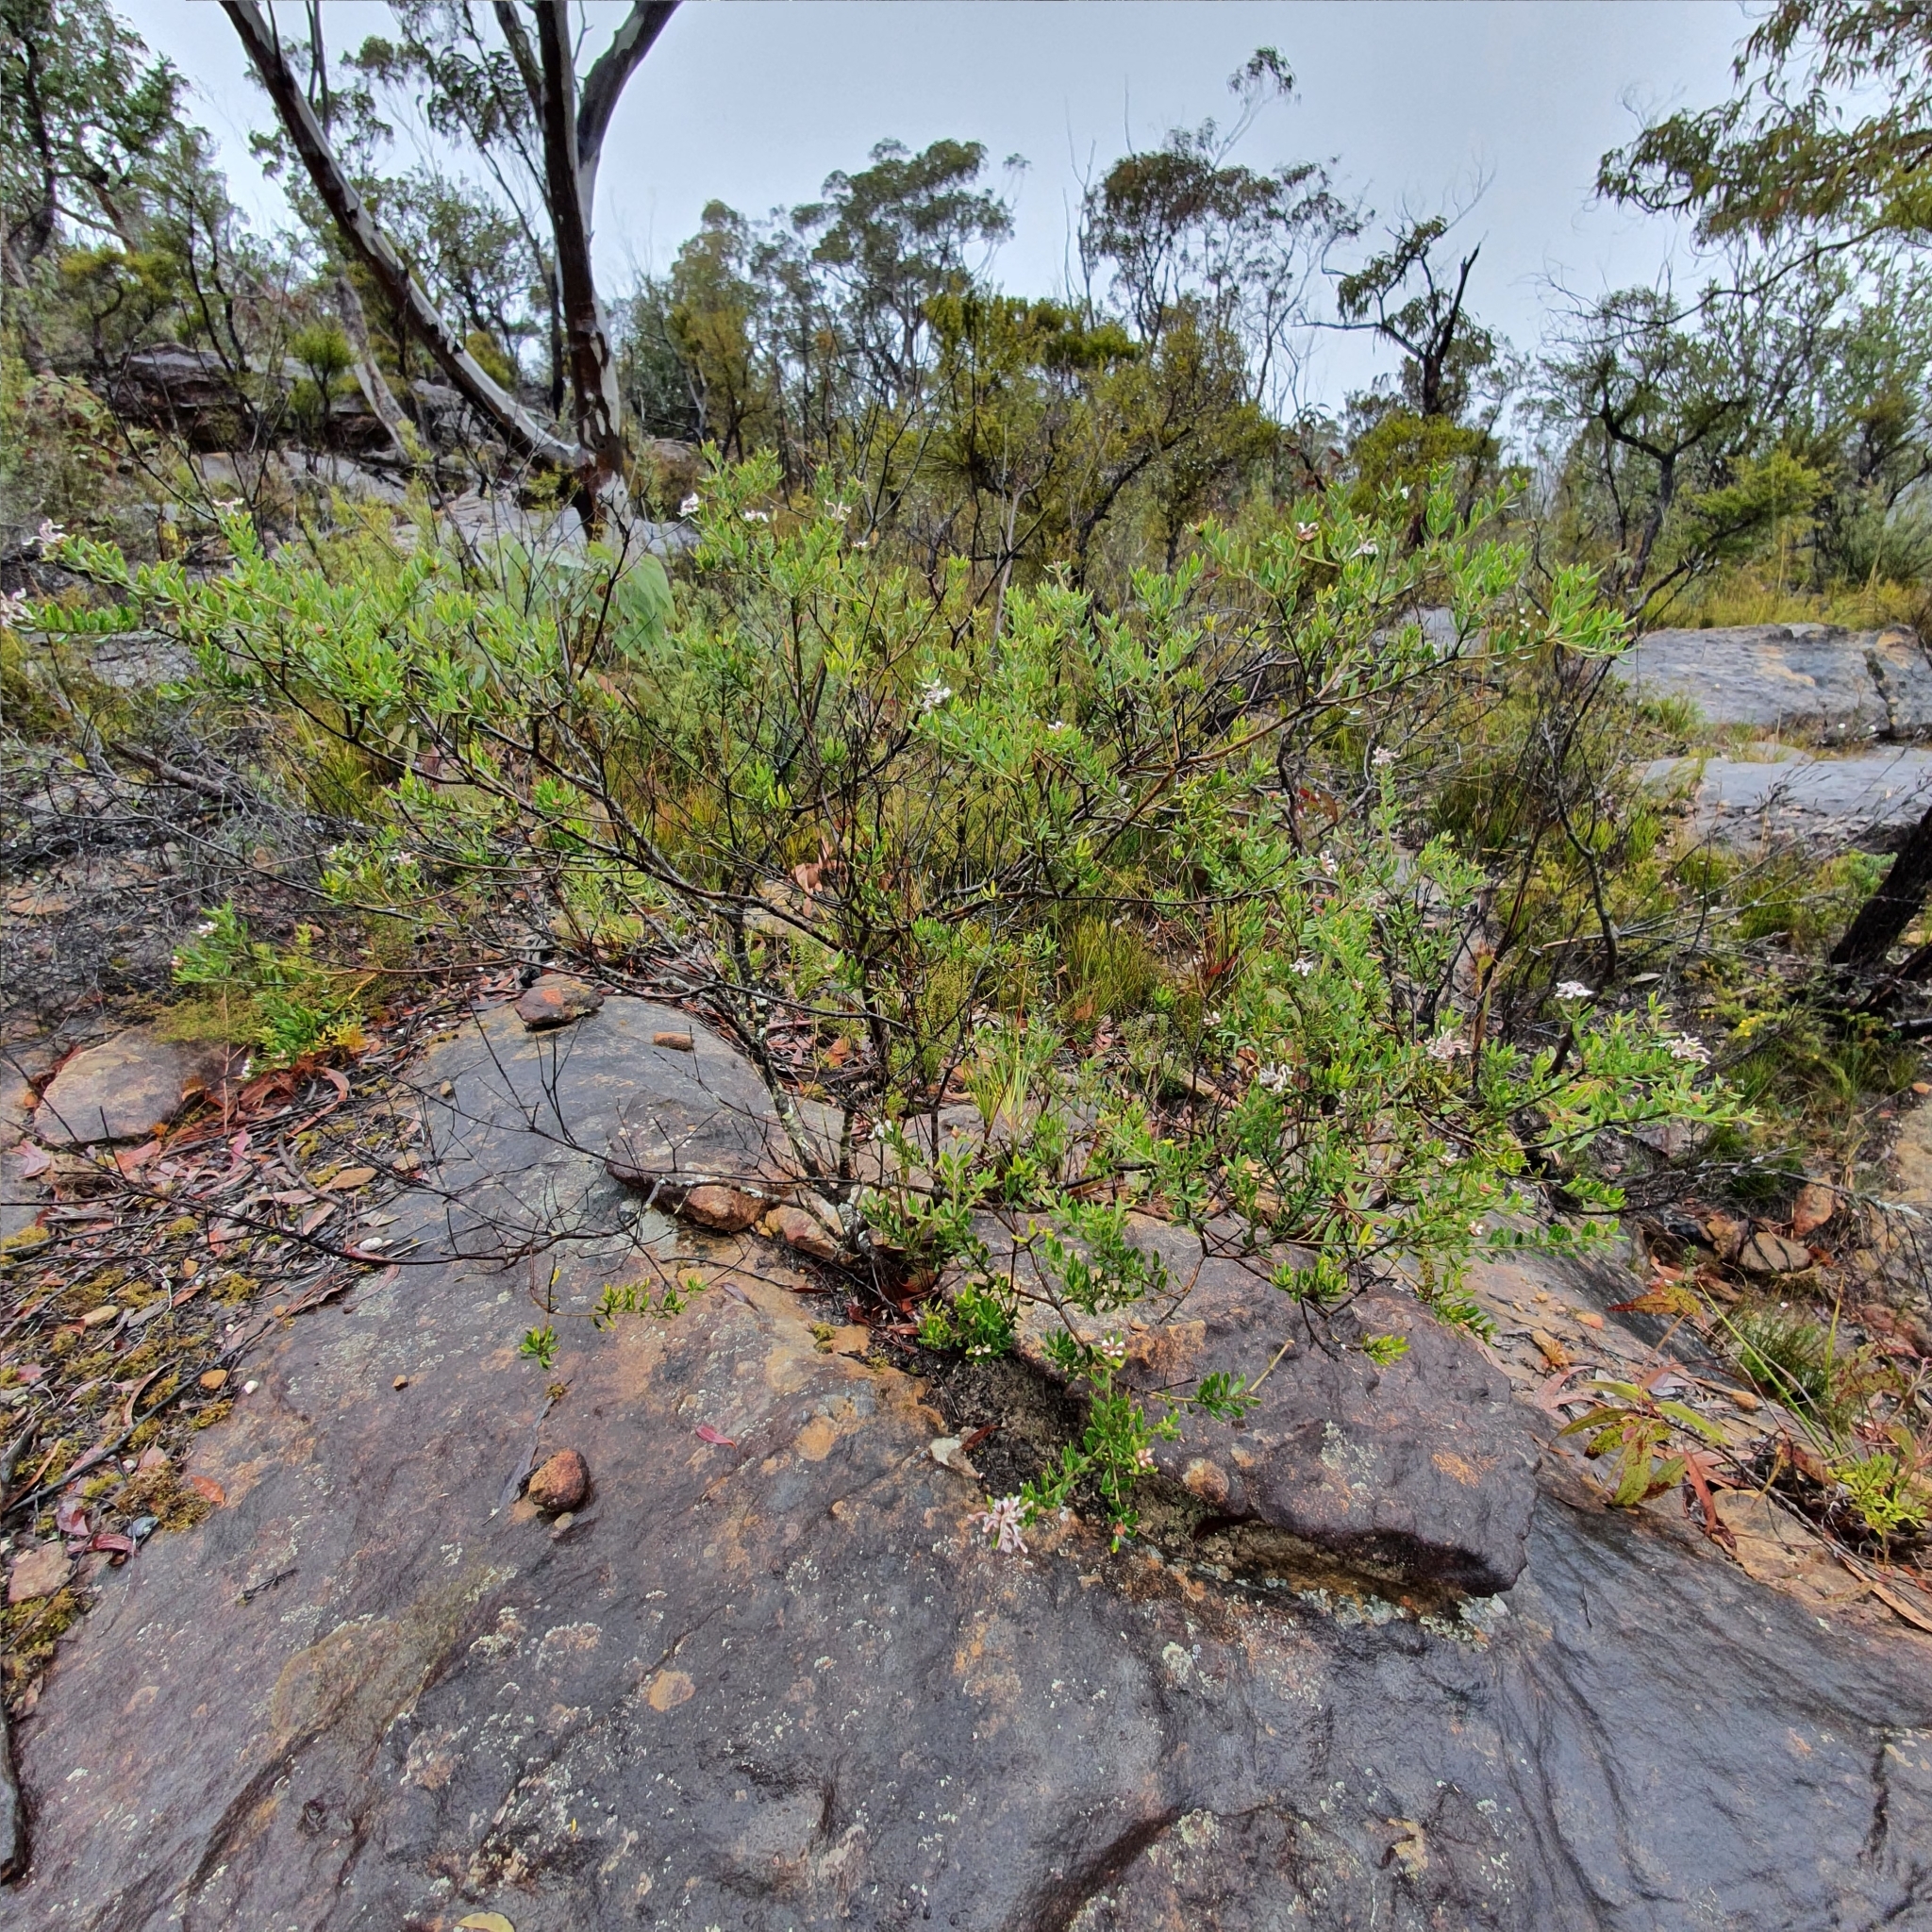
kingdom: Plantae
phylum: Tracheophyta
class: Magnoliopsida
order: Proteales
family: Proteaceae
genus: Grevillea
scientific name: Grevillea buxifolia
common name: Grey spiderflower
